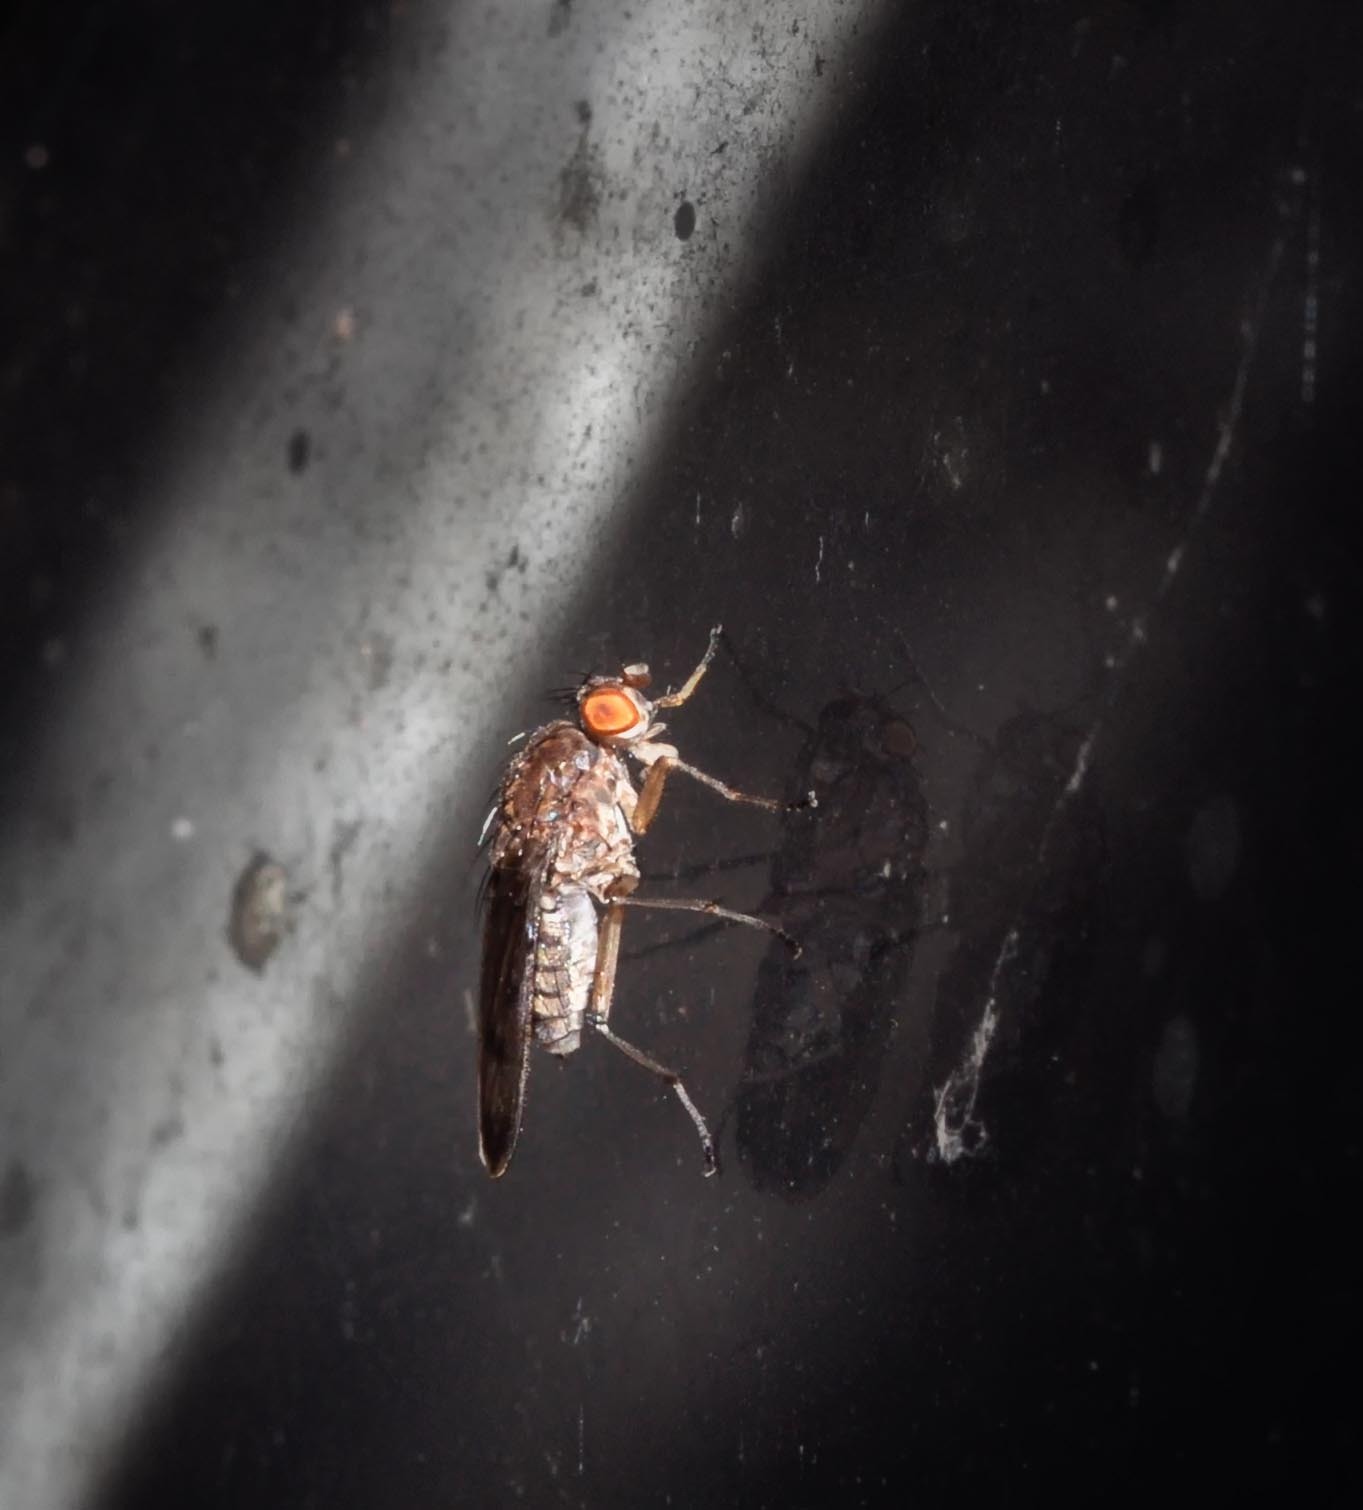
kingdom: Animalia
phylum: Arthropoda
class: Insecta
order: Diptera
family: Heleomyzidae
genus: Suillia
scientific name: Suillia variegata
